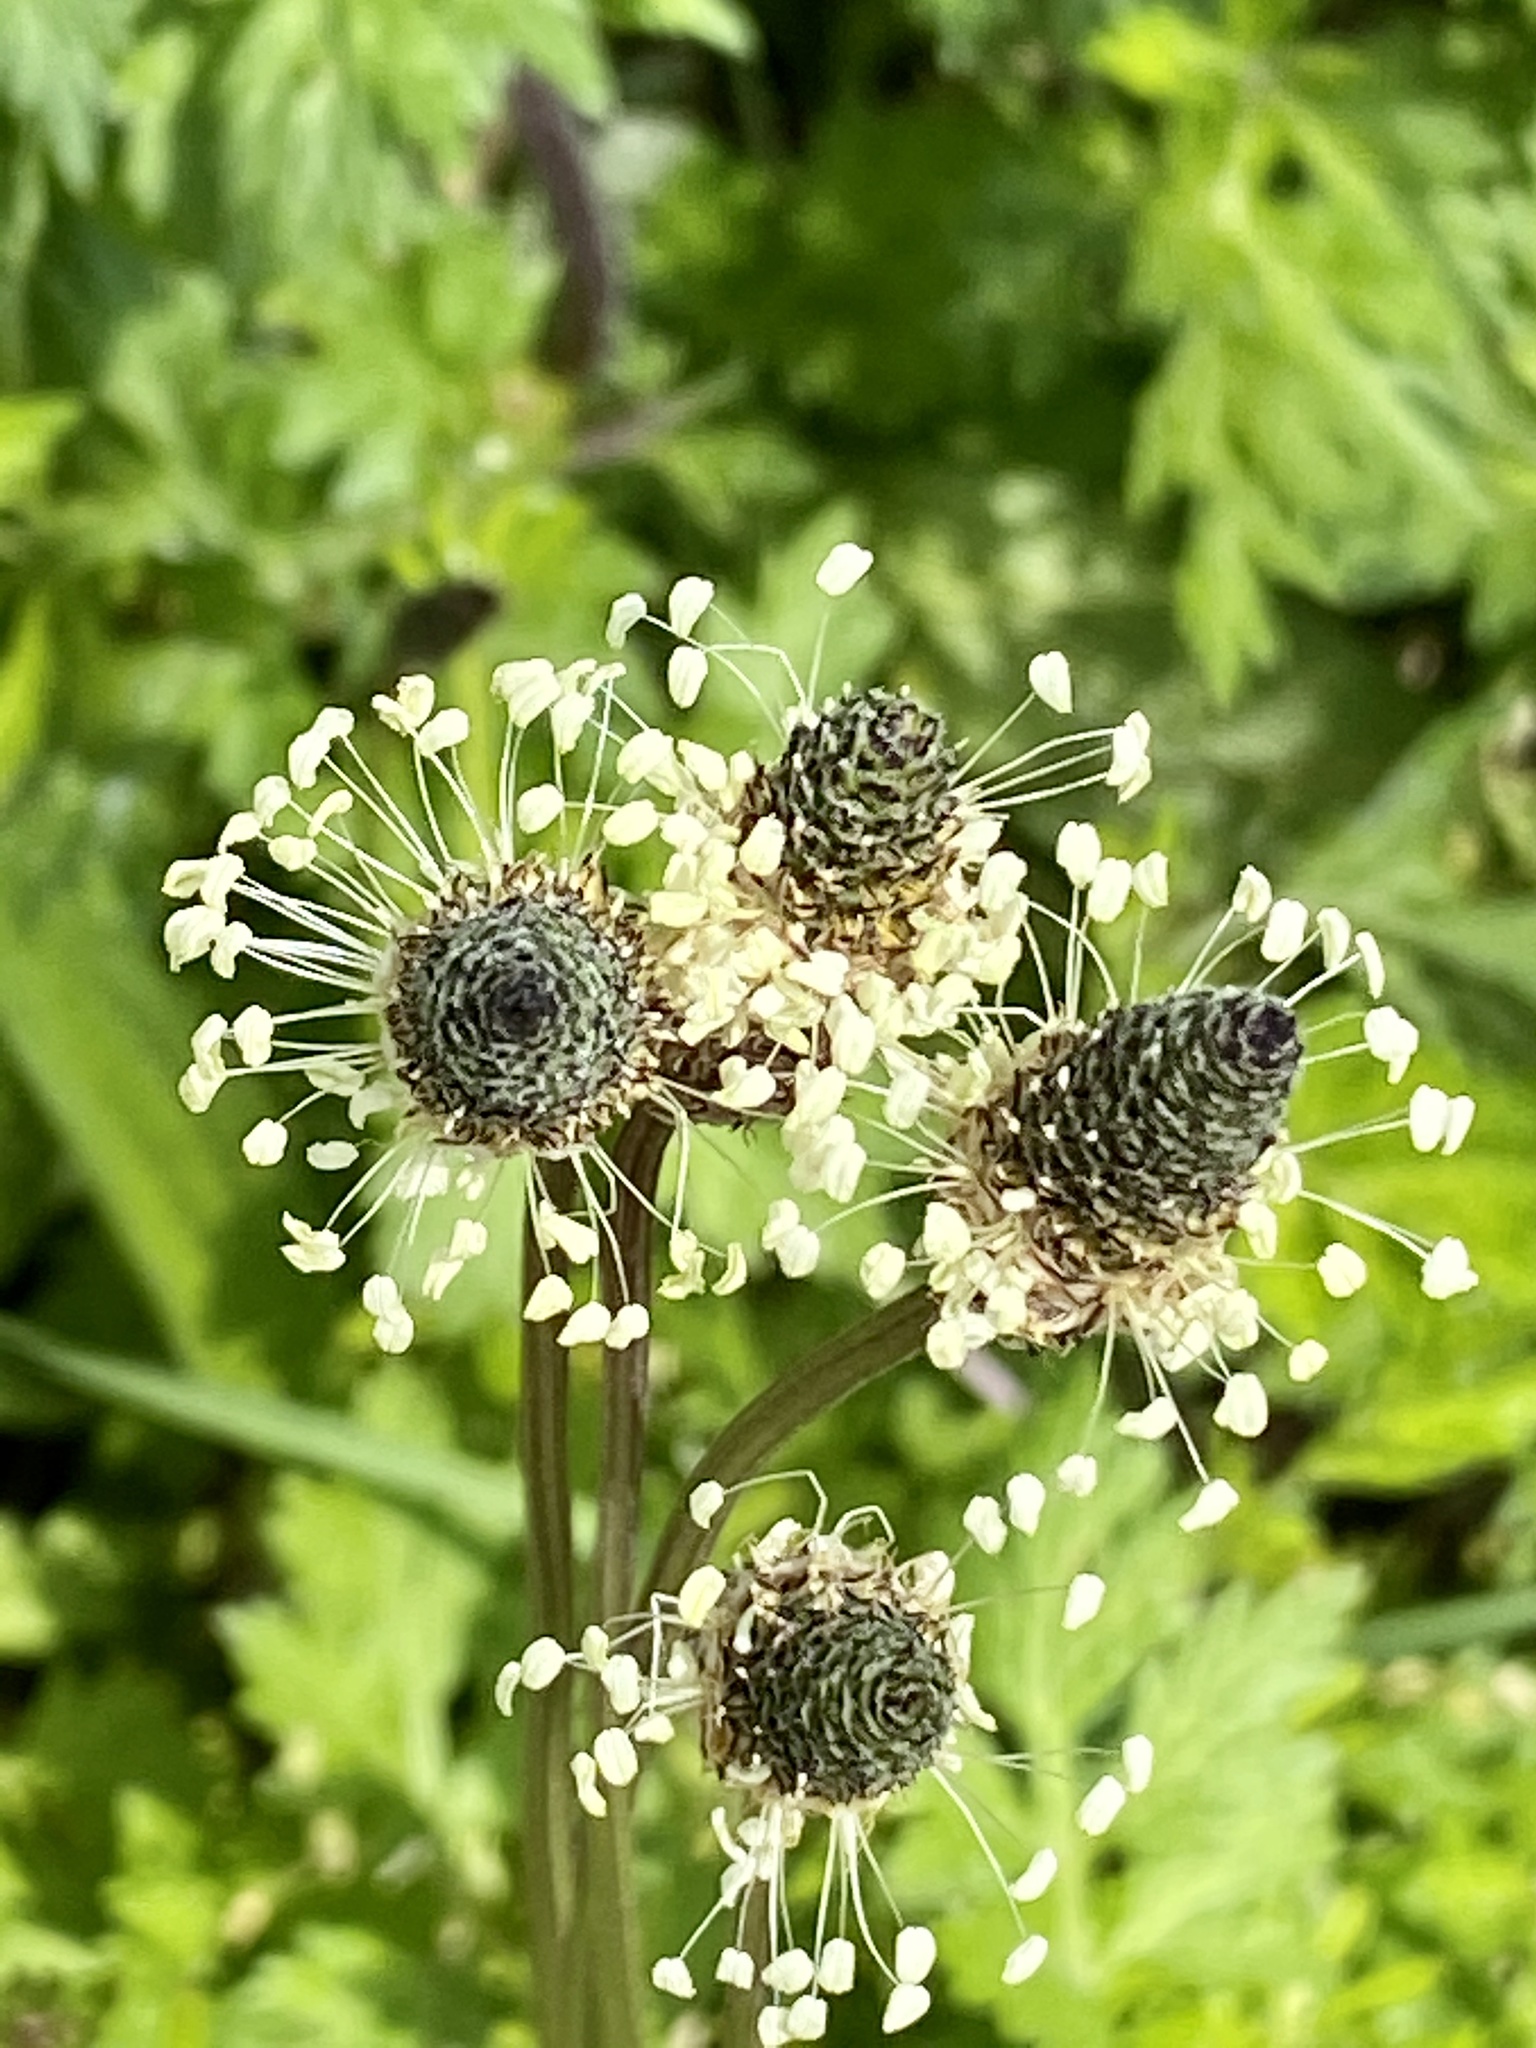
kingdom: Plantae
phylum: Tracheophyta
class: Magnoliopsida
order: Lamiales
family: Plantaginaceae
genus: Plantago
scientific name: Plantago lanceolata
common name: Ribwort plantain
